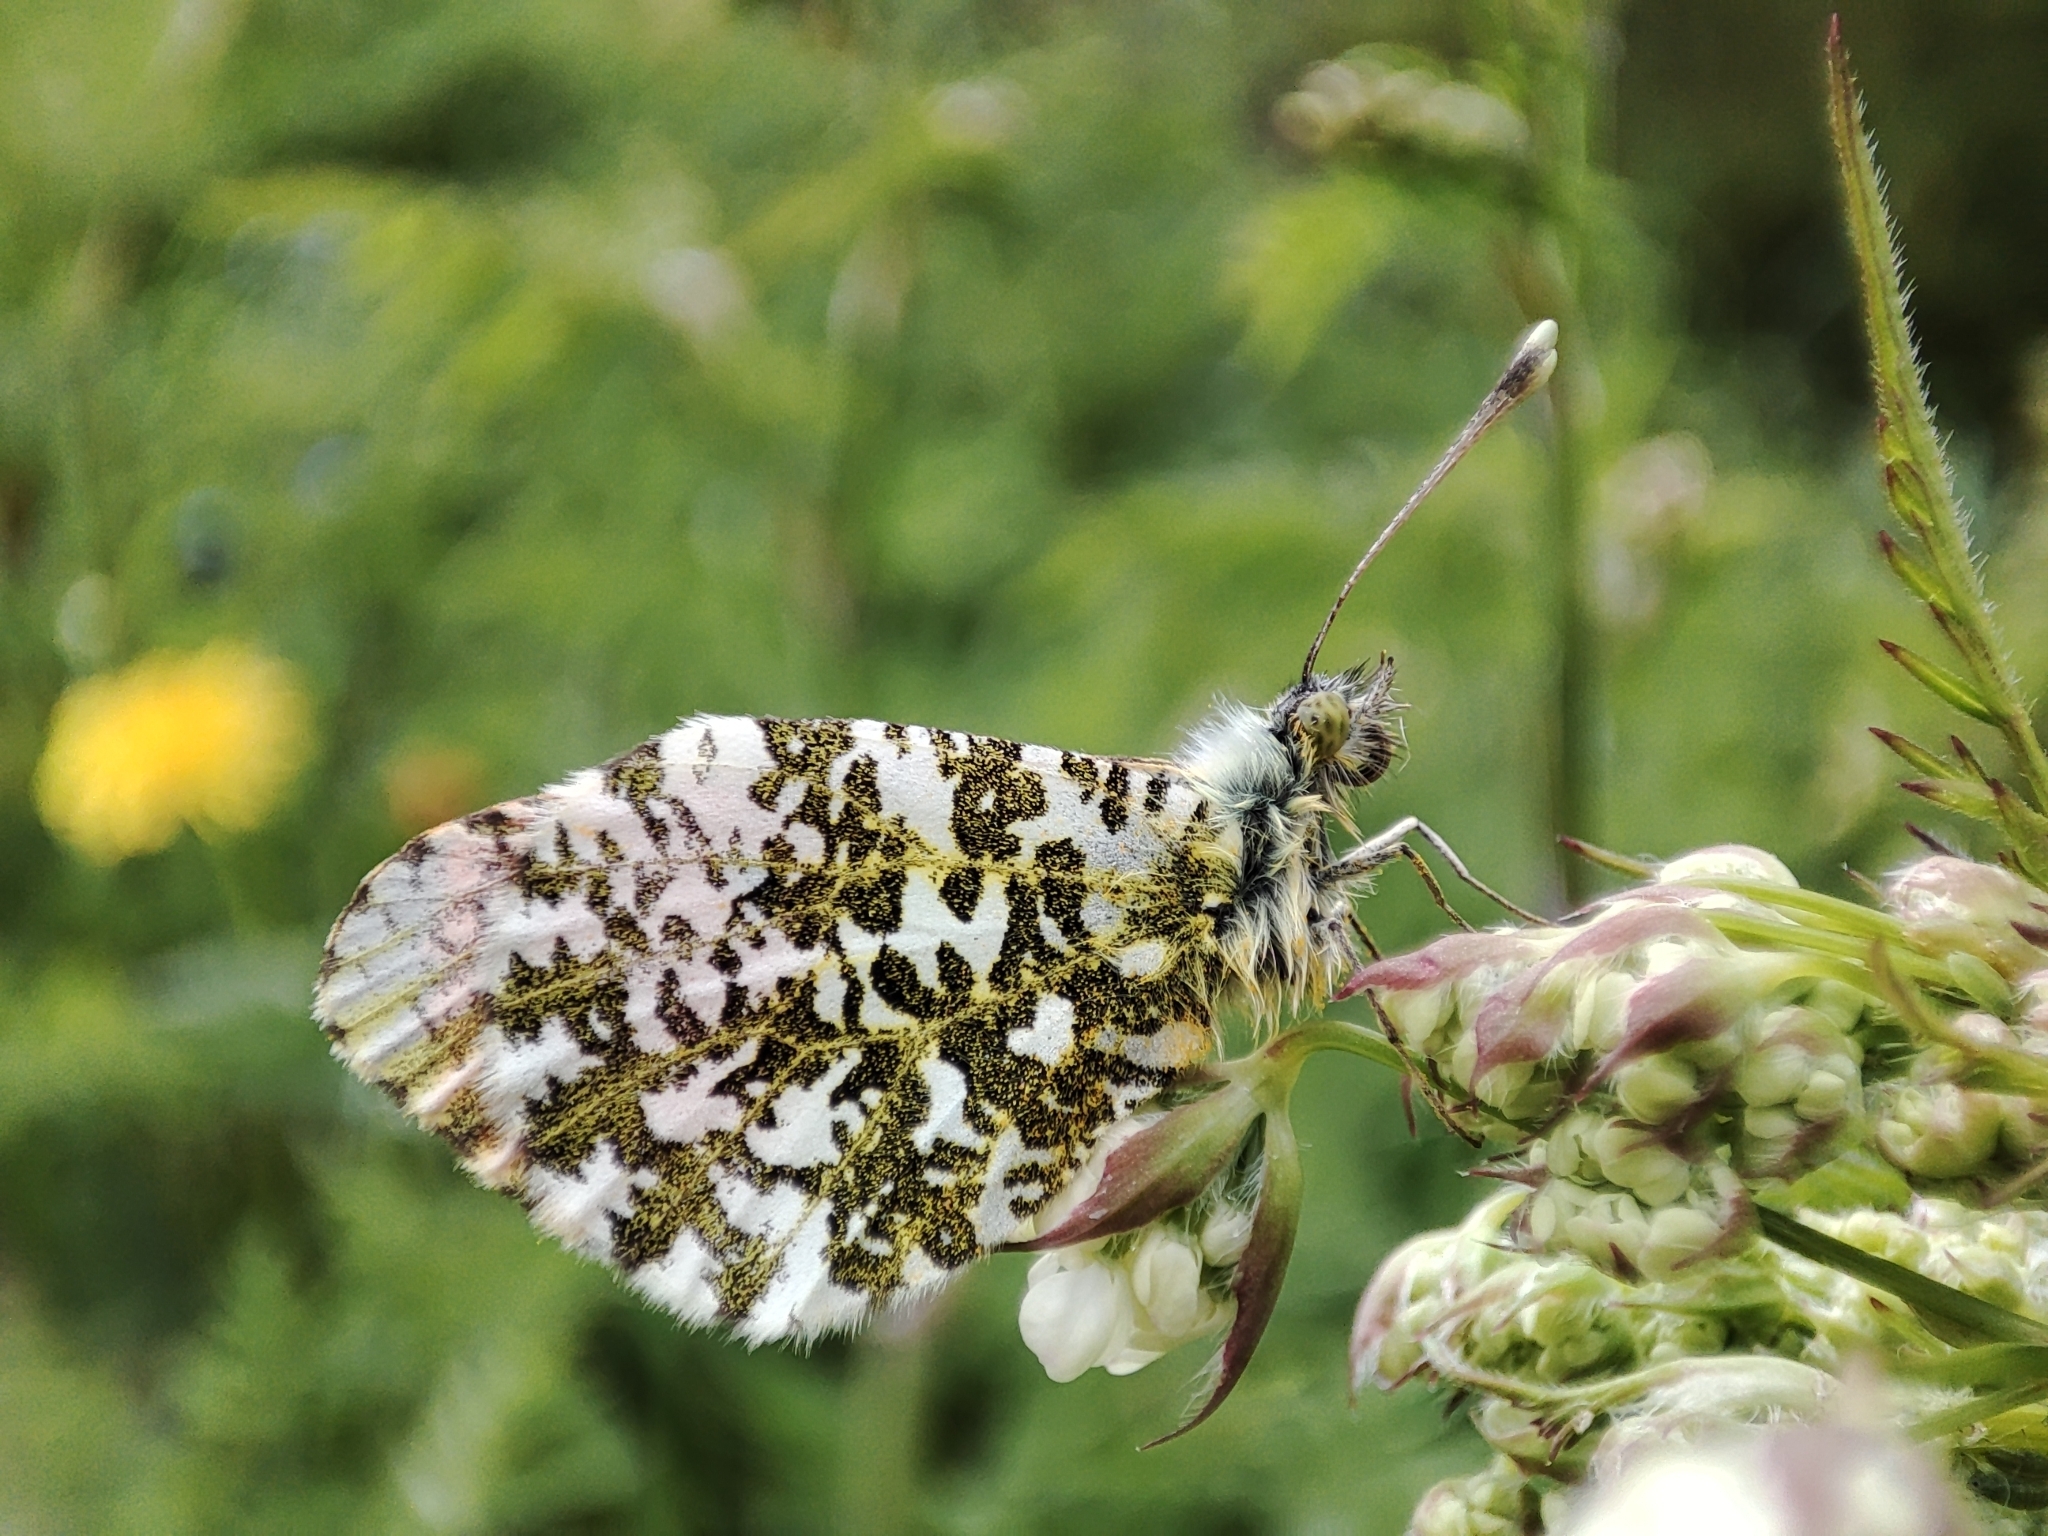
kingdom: Animalia
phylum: Arthropoda
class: Insecta
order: Lepidoptera
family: Pieridae
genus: Anthocharis
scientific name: Anthocharis cardamines
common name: Orange-tip
